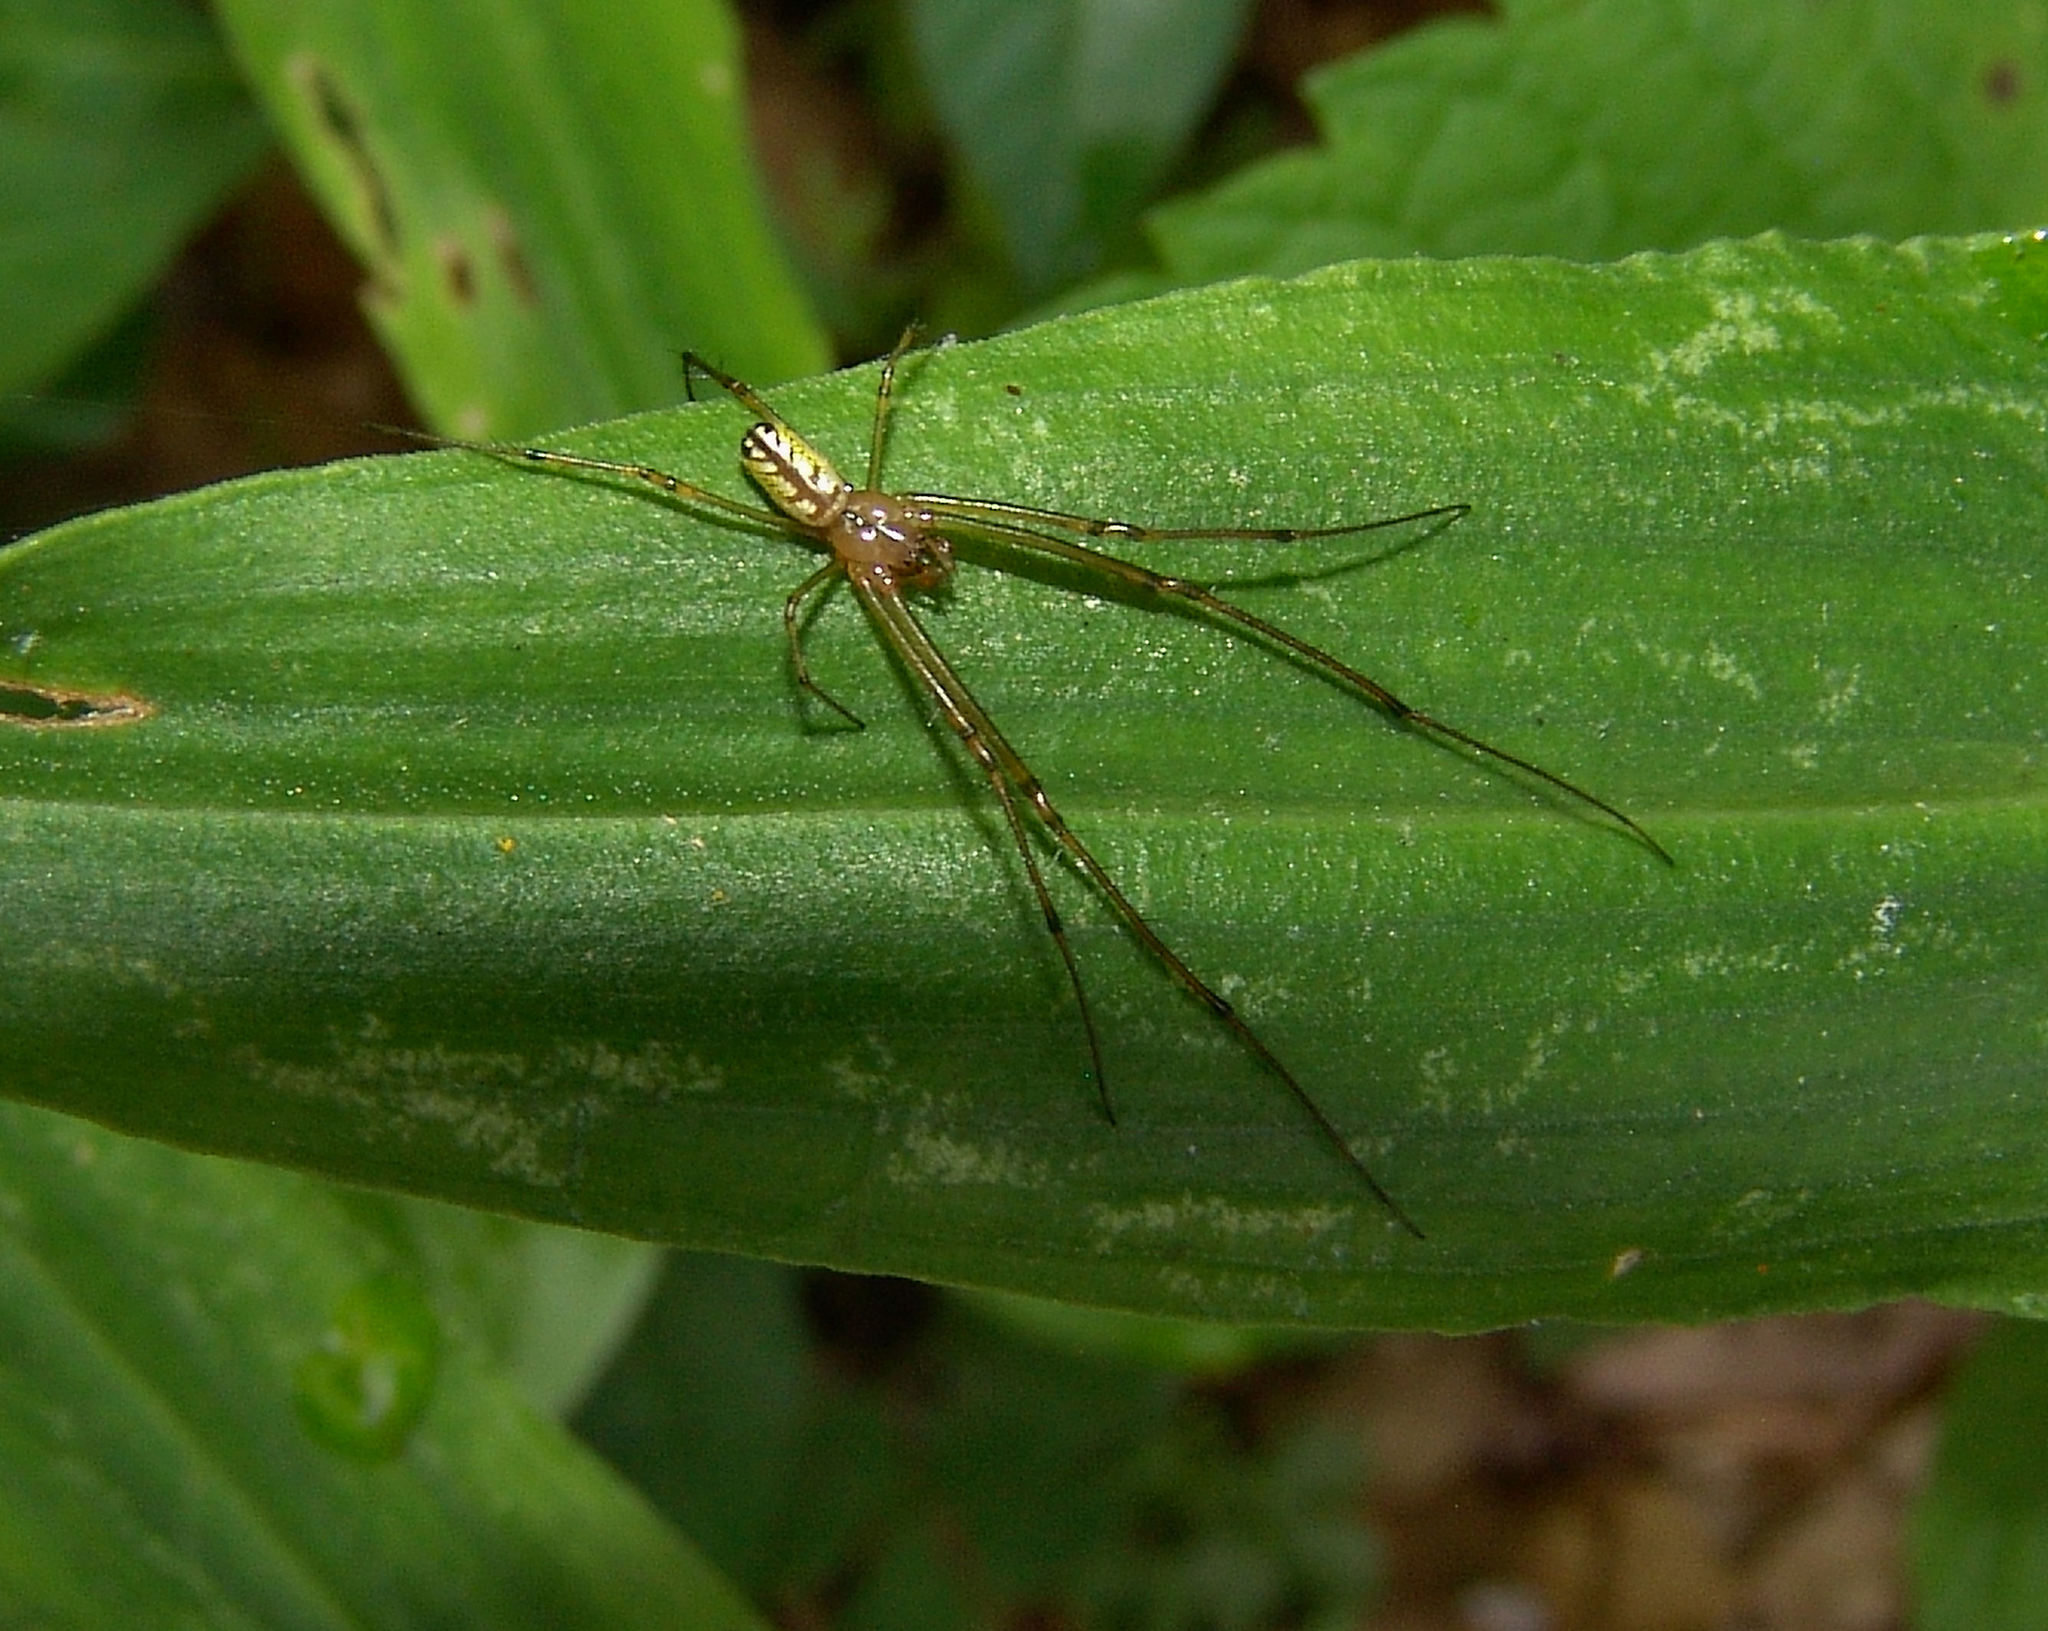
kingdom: Animalia
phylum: Arthropoda
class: Arachnida
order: Araneae
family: Tetragnathidae
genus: Leucauge
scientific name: Leucauge venusta
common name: Longjawed orb weavers
